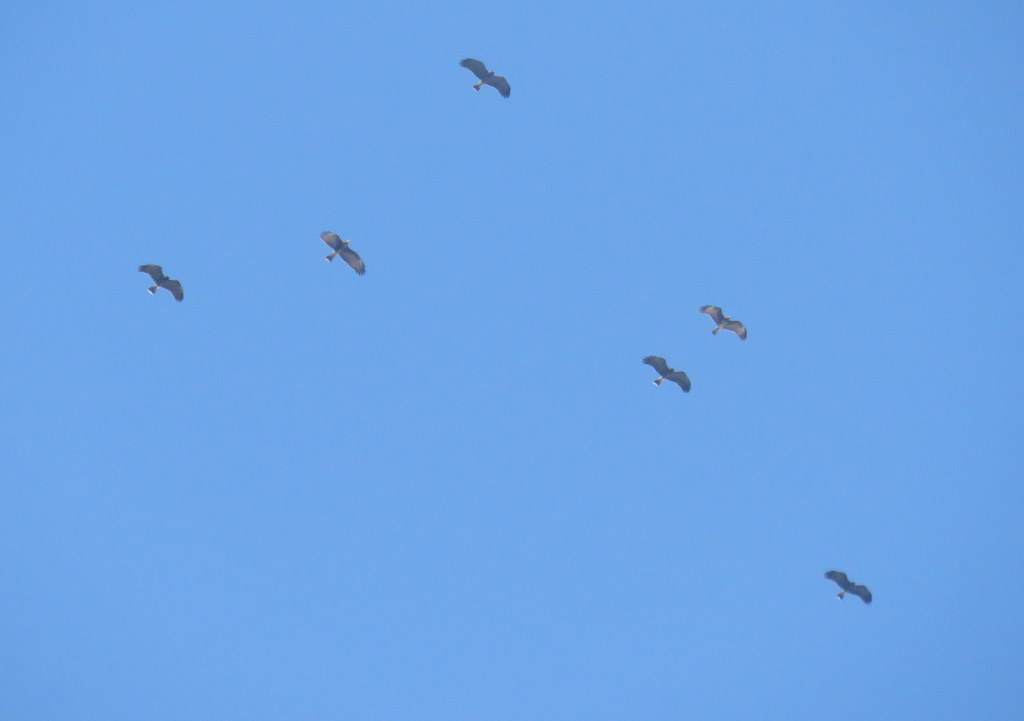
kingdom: Animalia
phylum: Chordata
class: Aves
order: Accipitriformes
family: Accipitridae
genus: Rostrhamus
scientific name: Rostrhamus sociabilis
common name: Snail kite
